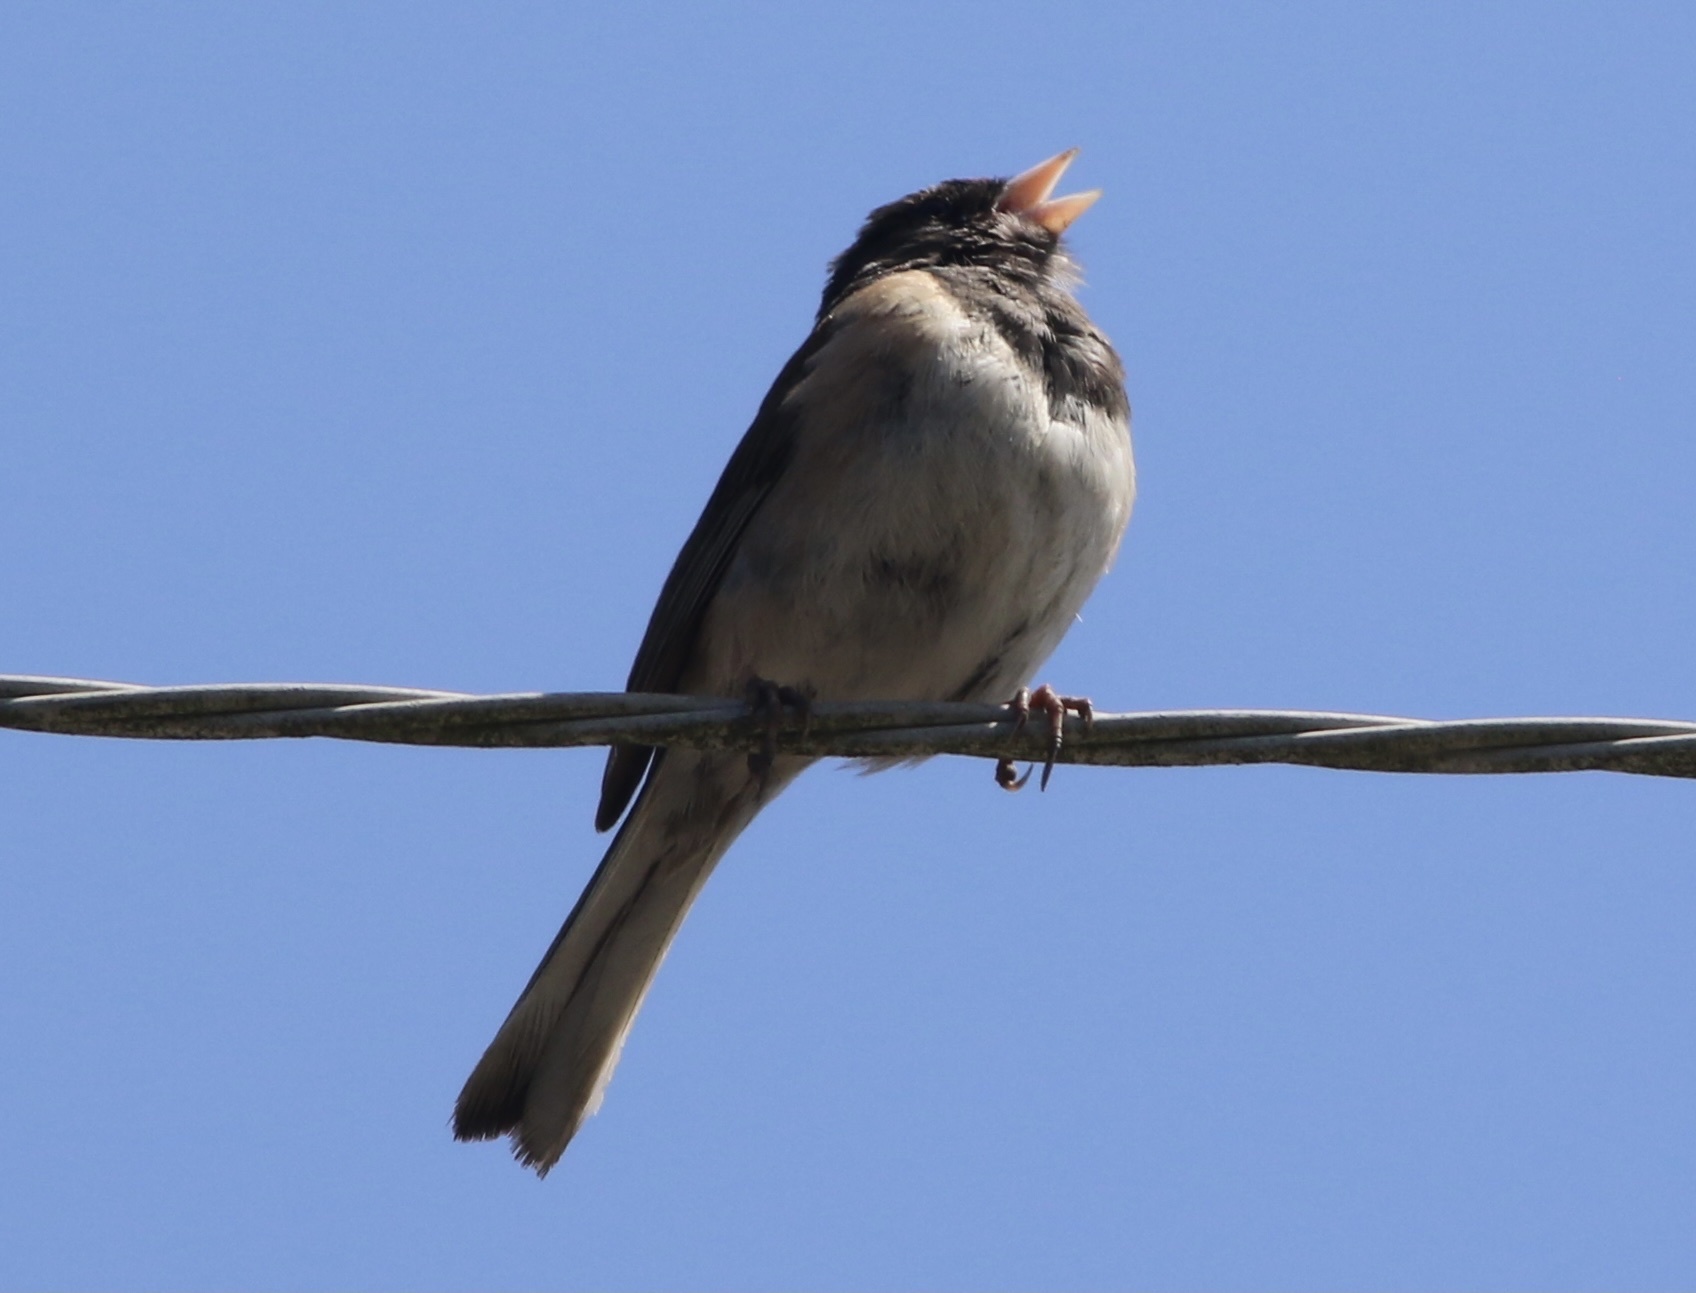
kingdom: Animalia
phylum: Chordata
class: Aves
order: Passeriformes
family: Passerellidae
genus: Junco
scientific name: Junco hyemalis
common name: Dark-eyed junco
